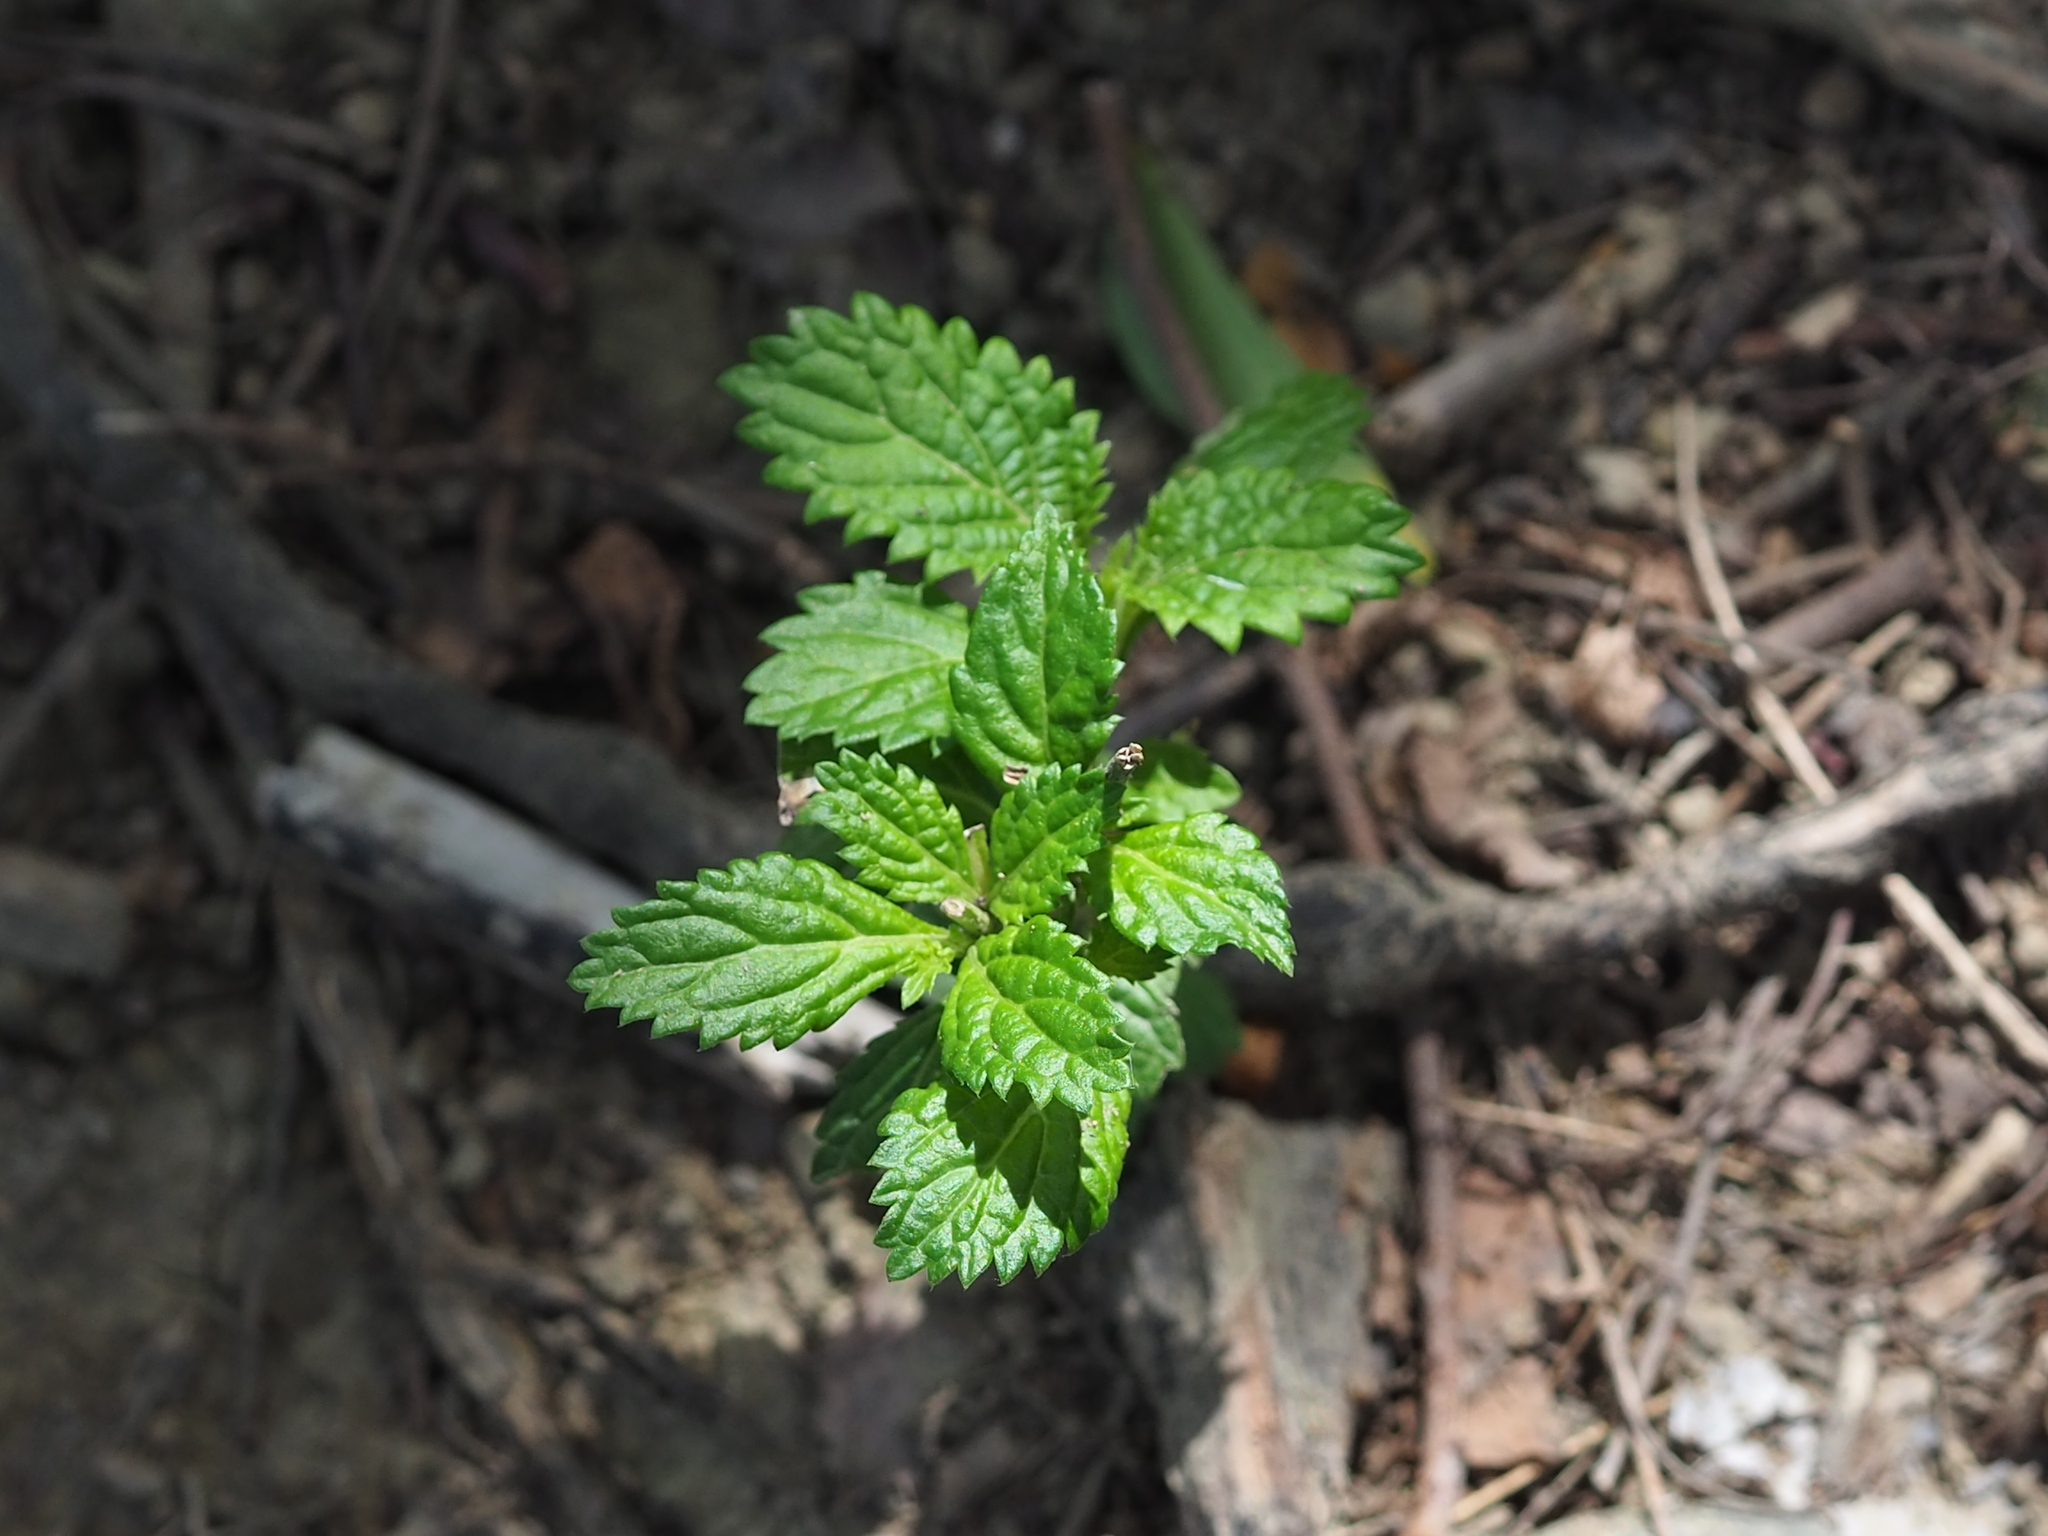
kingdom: Plantae
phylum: Tracheophyta
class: Magnoliopsida
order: Lamiales
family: Verbenaceae
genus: Stachytarpheta
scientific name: Stachytarpheta urticifolia
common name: Nettleleaf velvetberry
